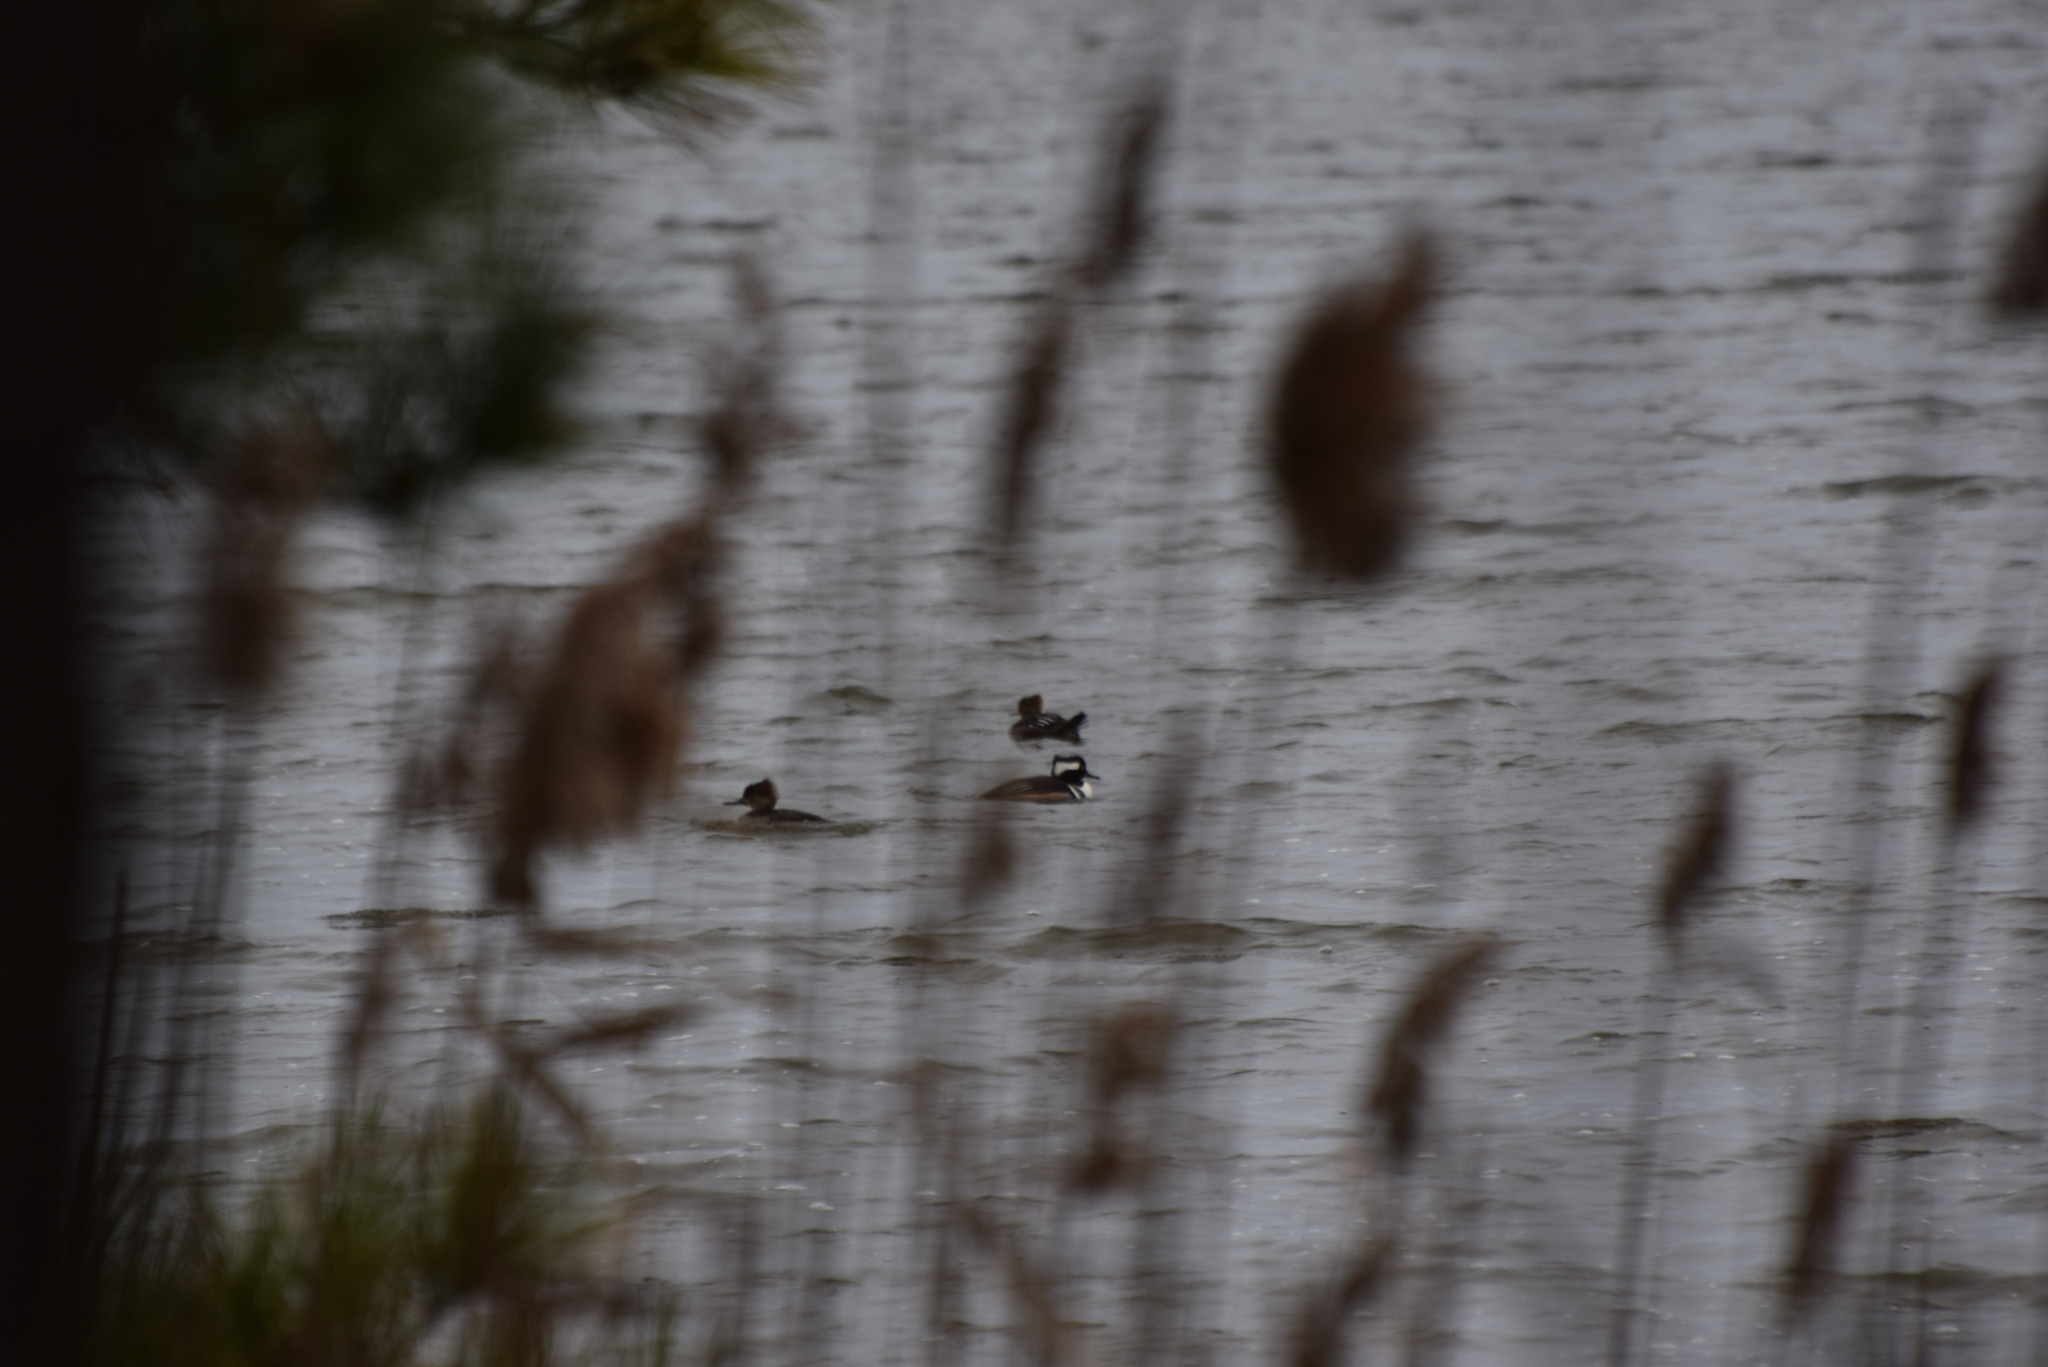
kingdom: Animalia
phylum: Chordata
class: Aves
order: Anseriformes
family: Anatidae
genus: Lophodytes
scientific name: Lophodytes cucullatus
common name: Hooded merganser
